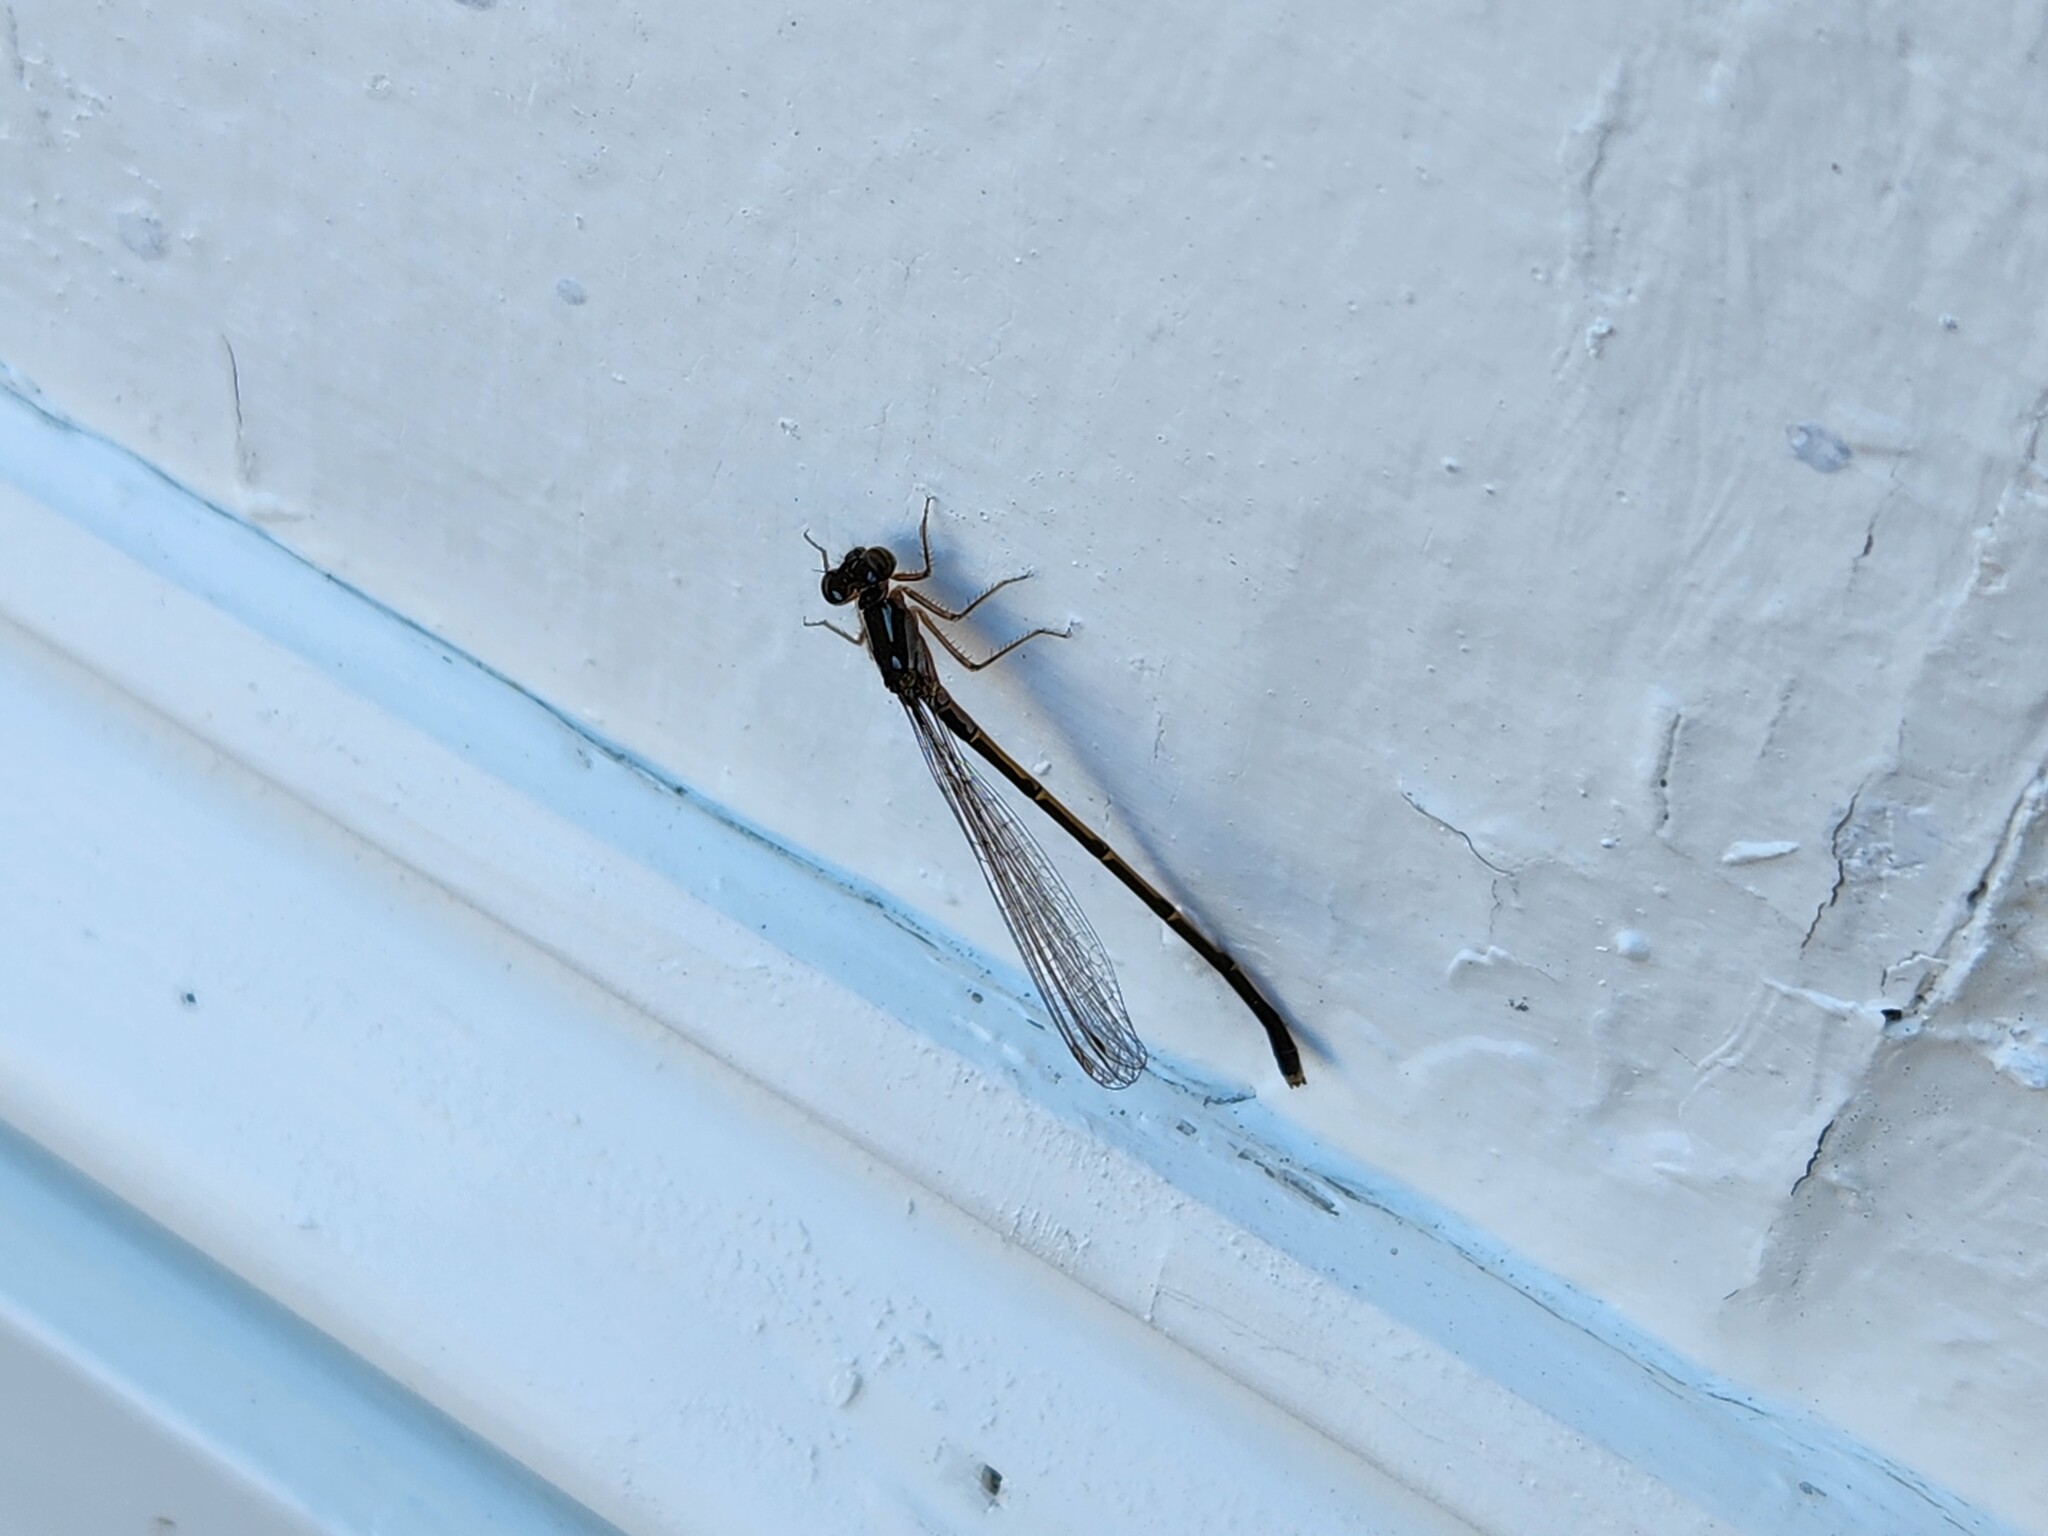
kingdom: Animalia
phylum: Arthropoda
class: Insecta
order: Odonata
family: Coenagrionidae
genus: Ischnura
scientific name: Ischnura posita
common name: Fragile forktail
